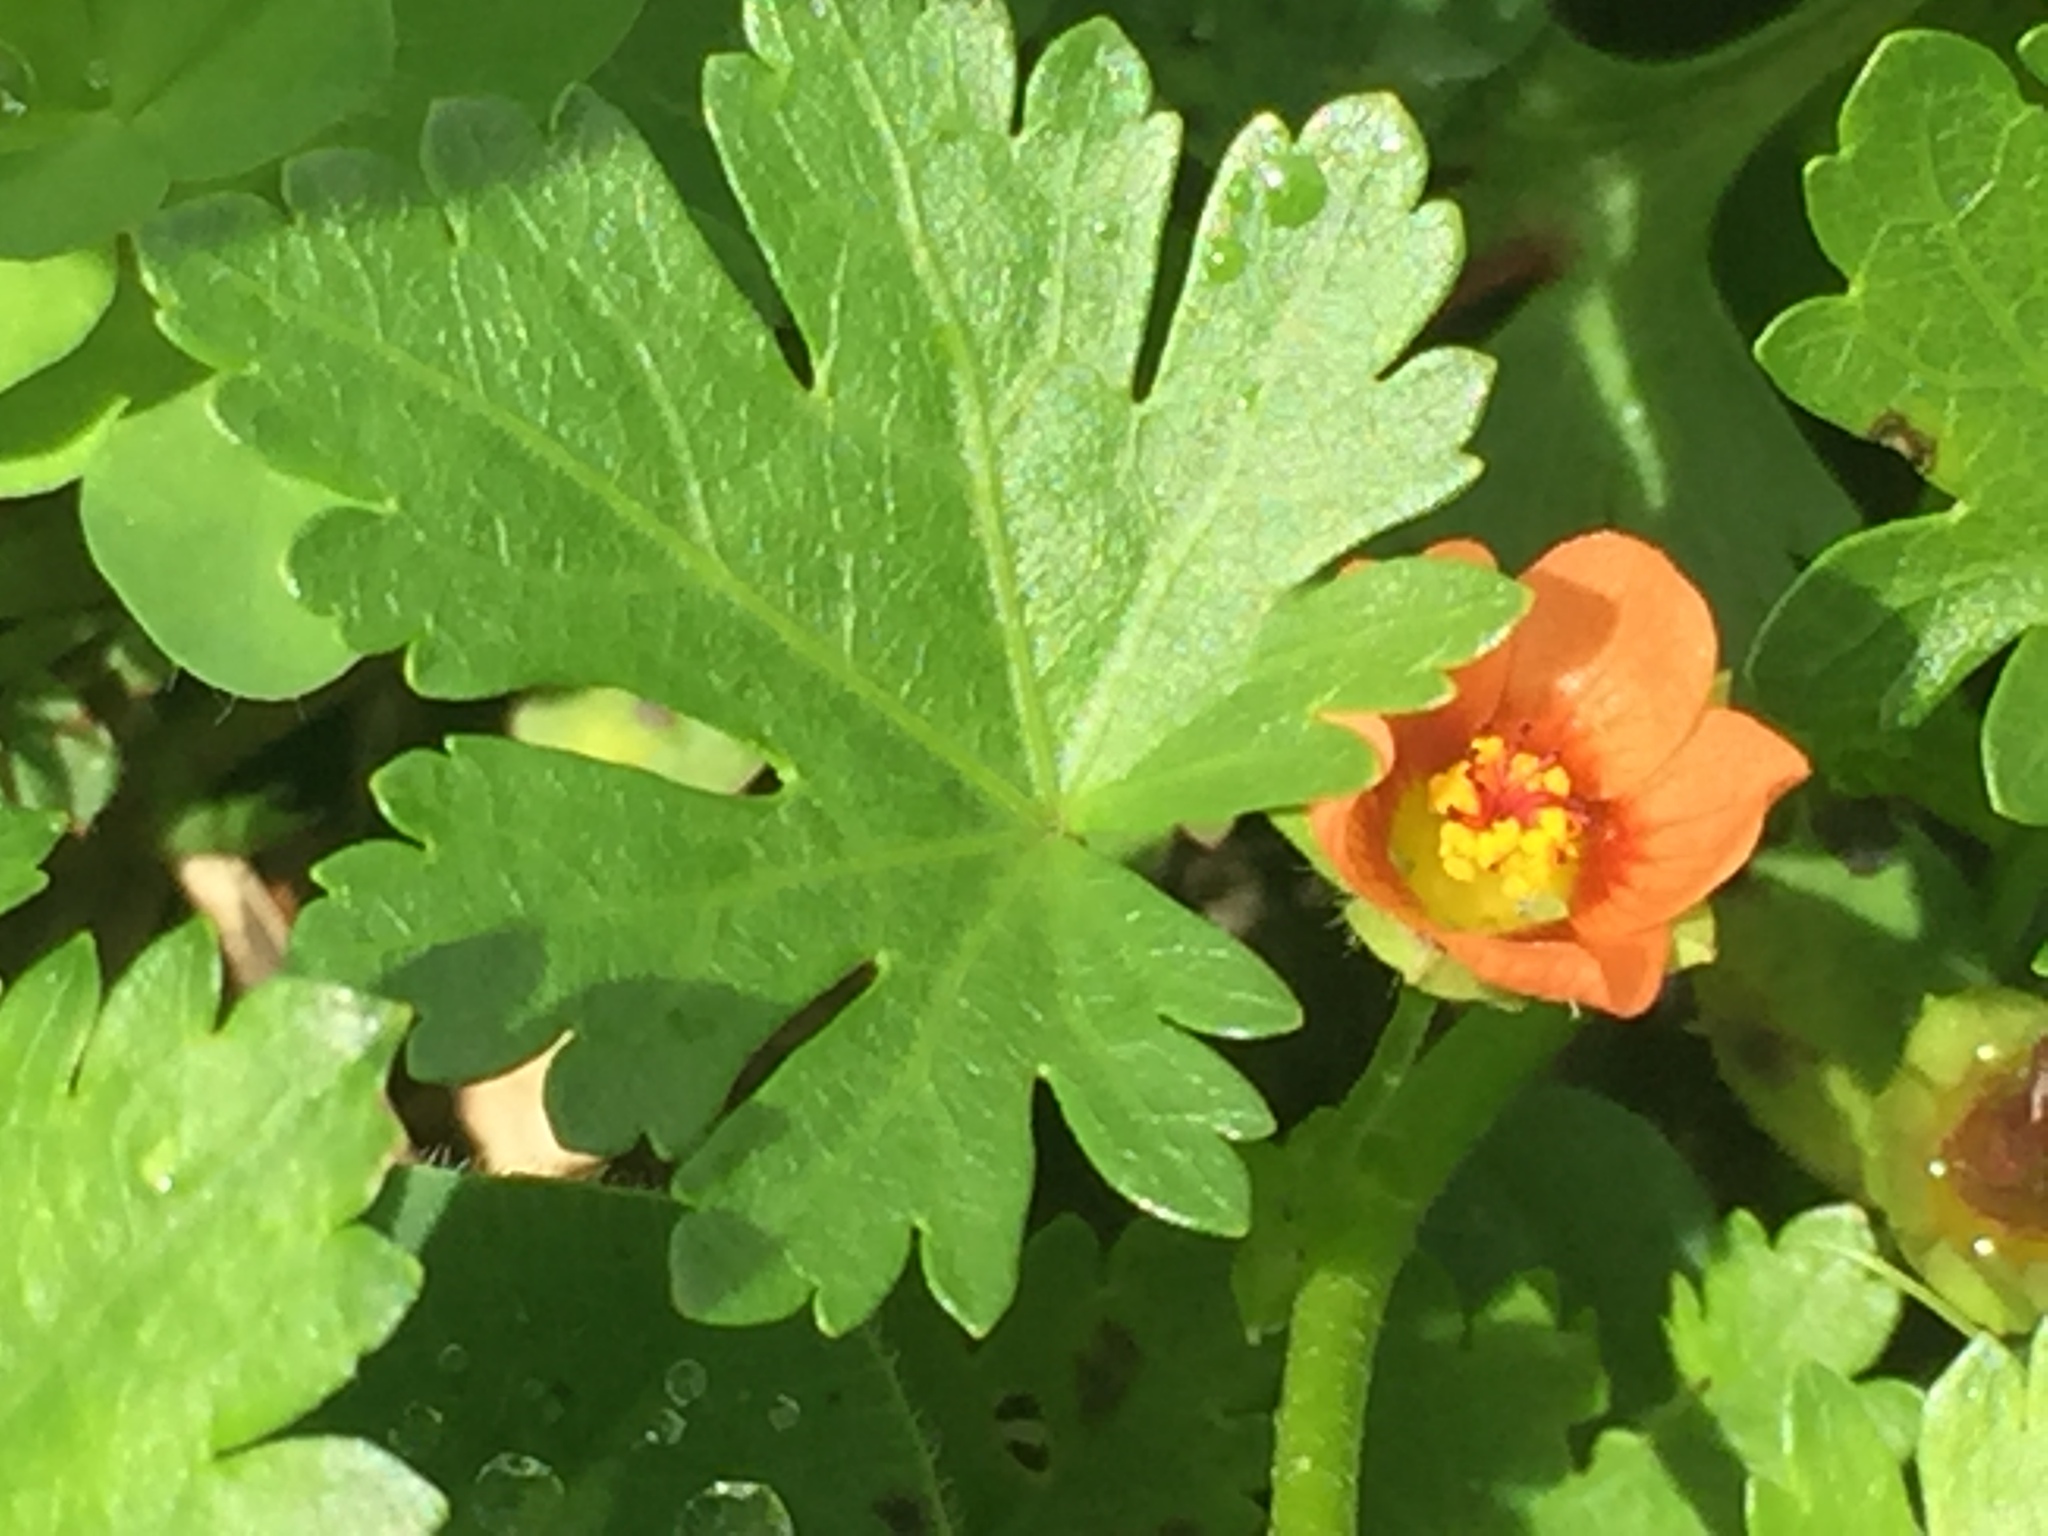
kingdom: Plantae
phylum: Tracheophyta
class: Magnoliopsida
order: Malvales
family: Malvaceae
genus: Modiola
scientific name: Modiola caroliniana
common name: Carolina bristlemallow
